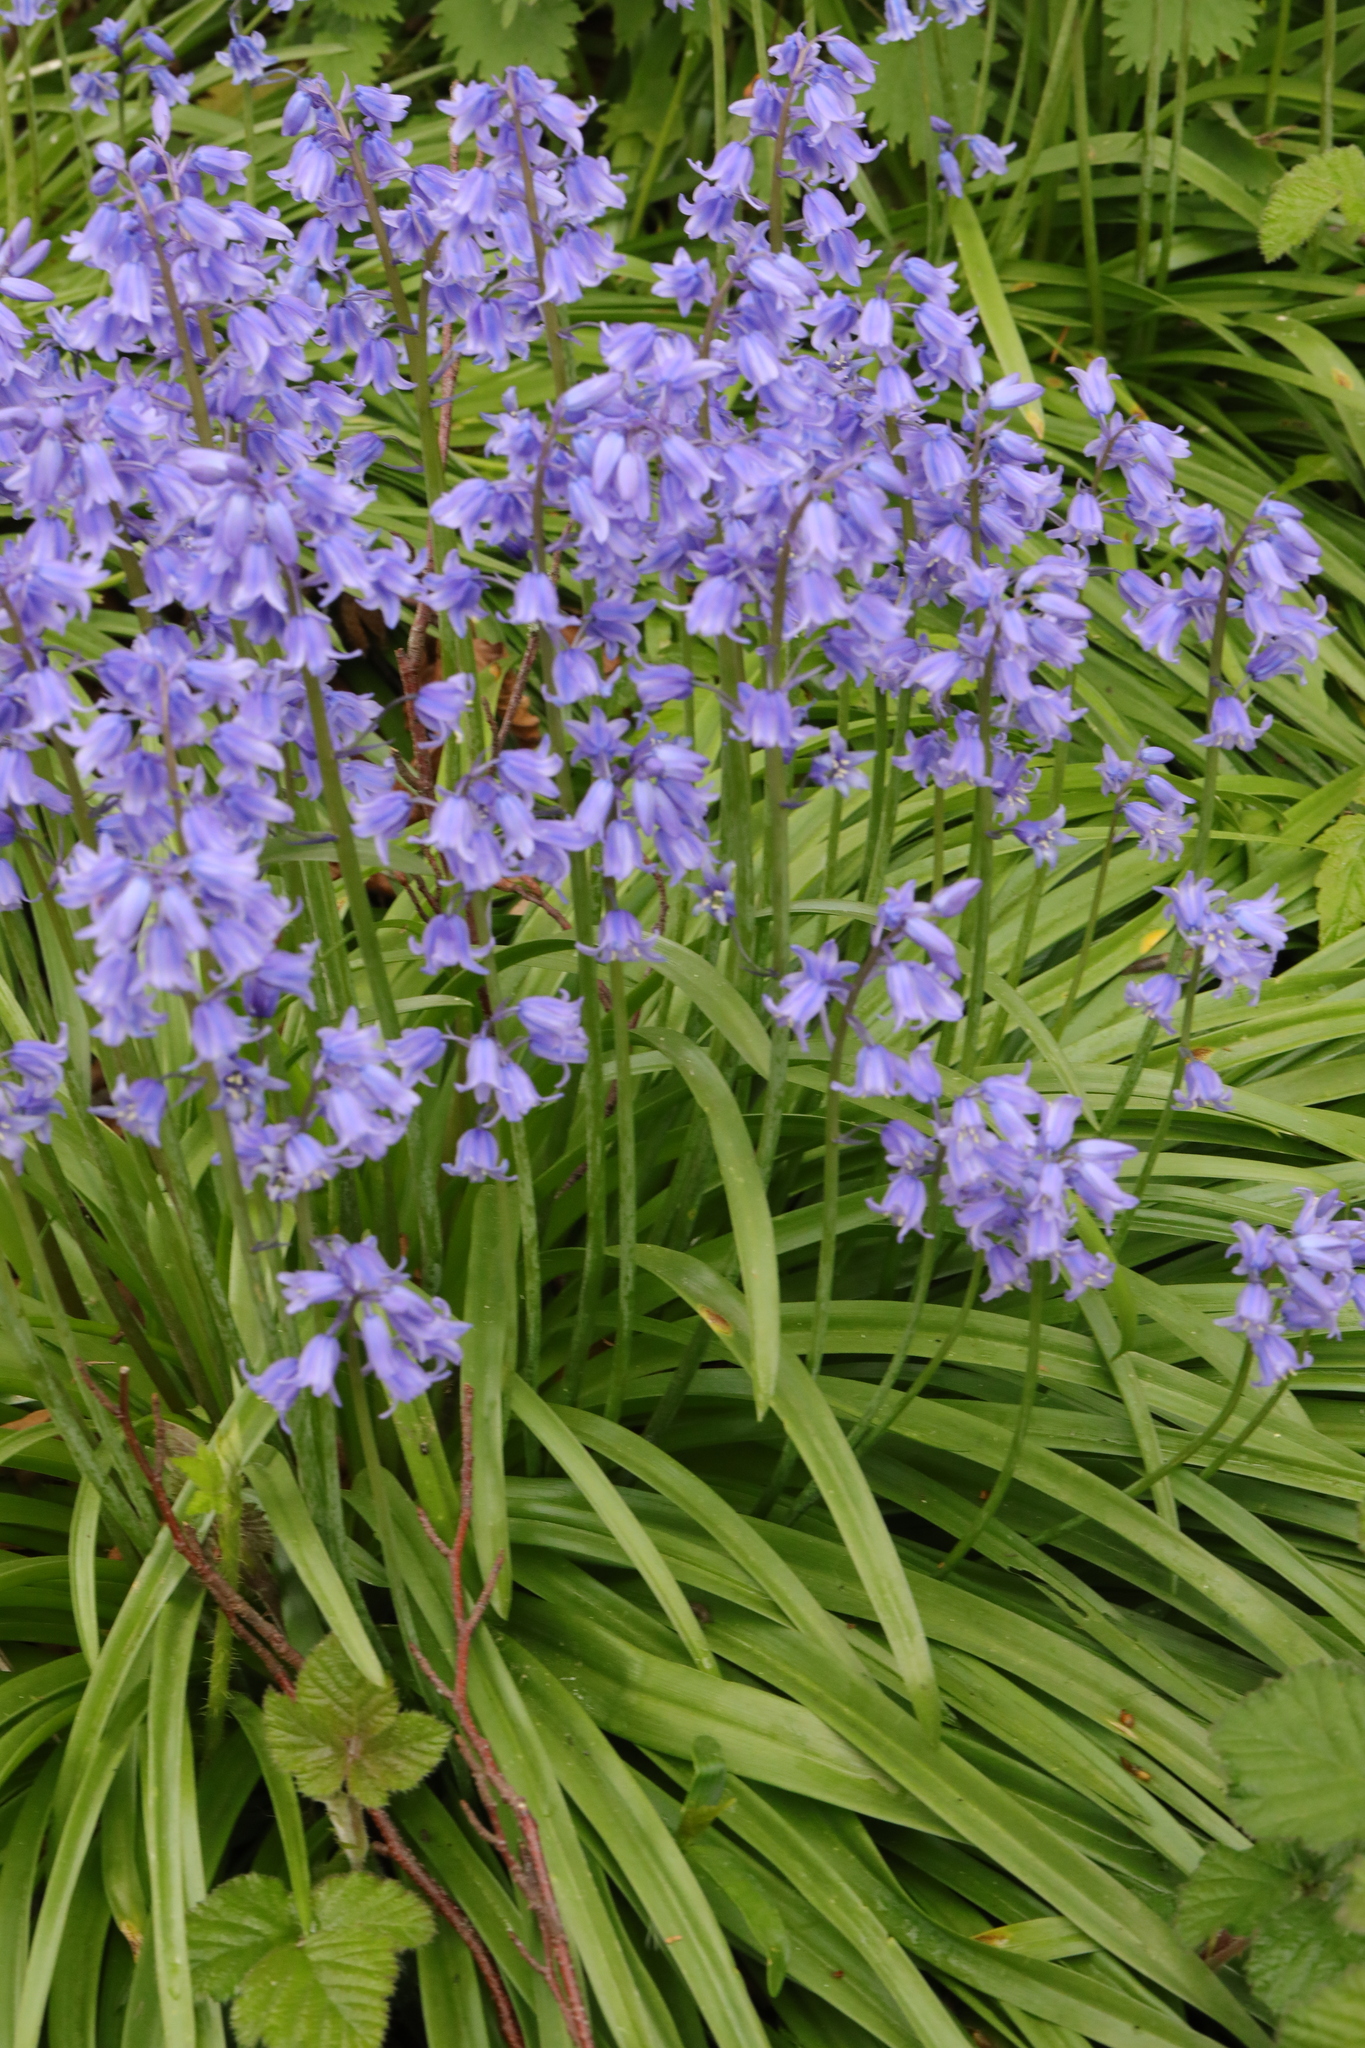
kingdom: Plantae
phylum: Tracheophyta
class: Liliopsida
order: Asparagales
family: Asparagaceae
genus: Hyacinthoides
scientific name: Hyacinthoides hispanica
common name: Spanish bluebell
